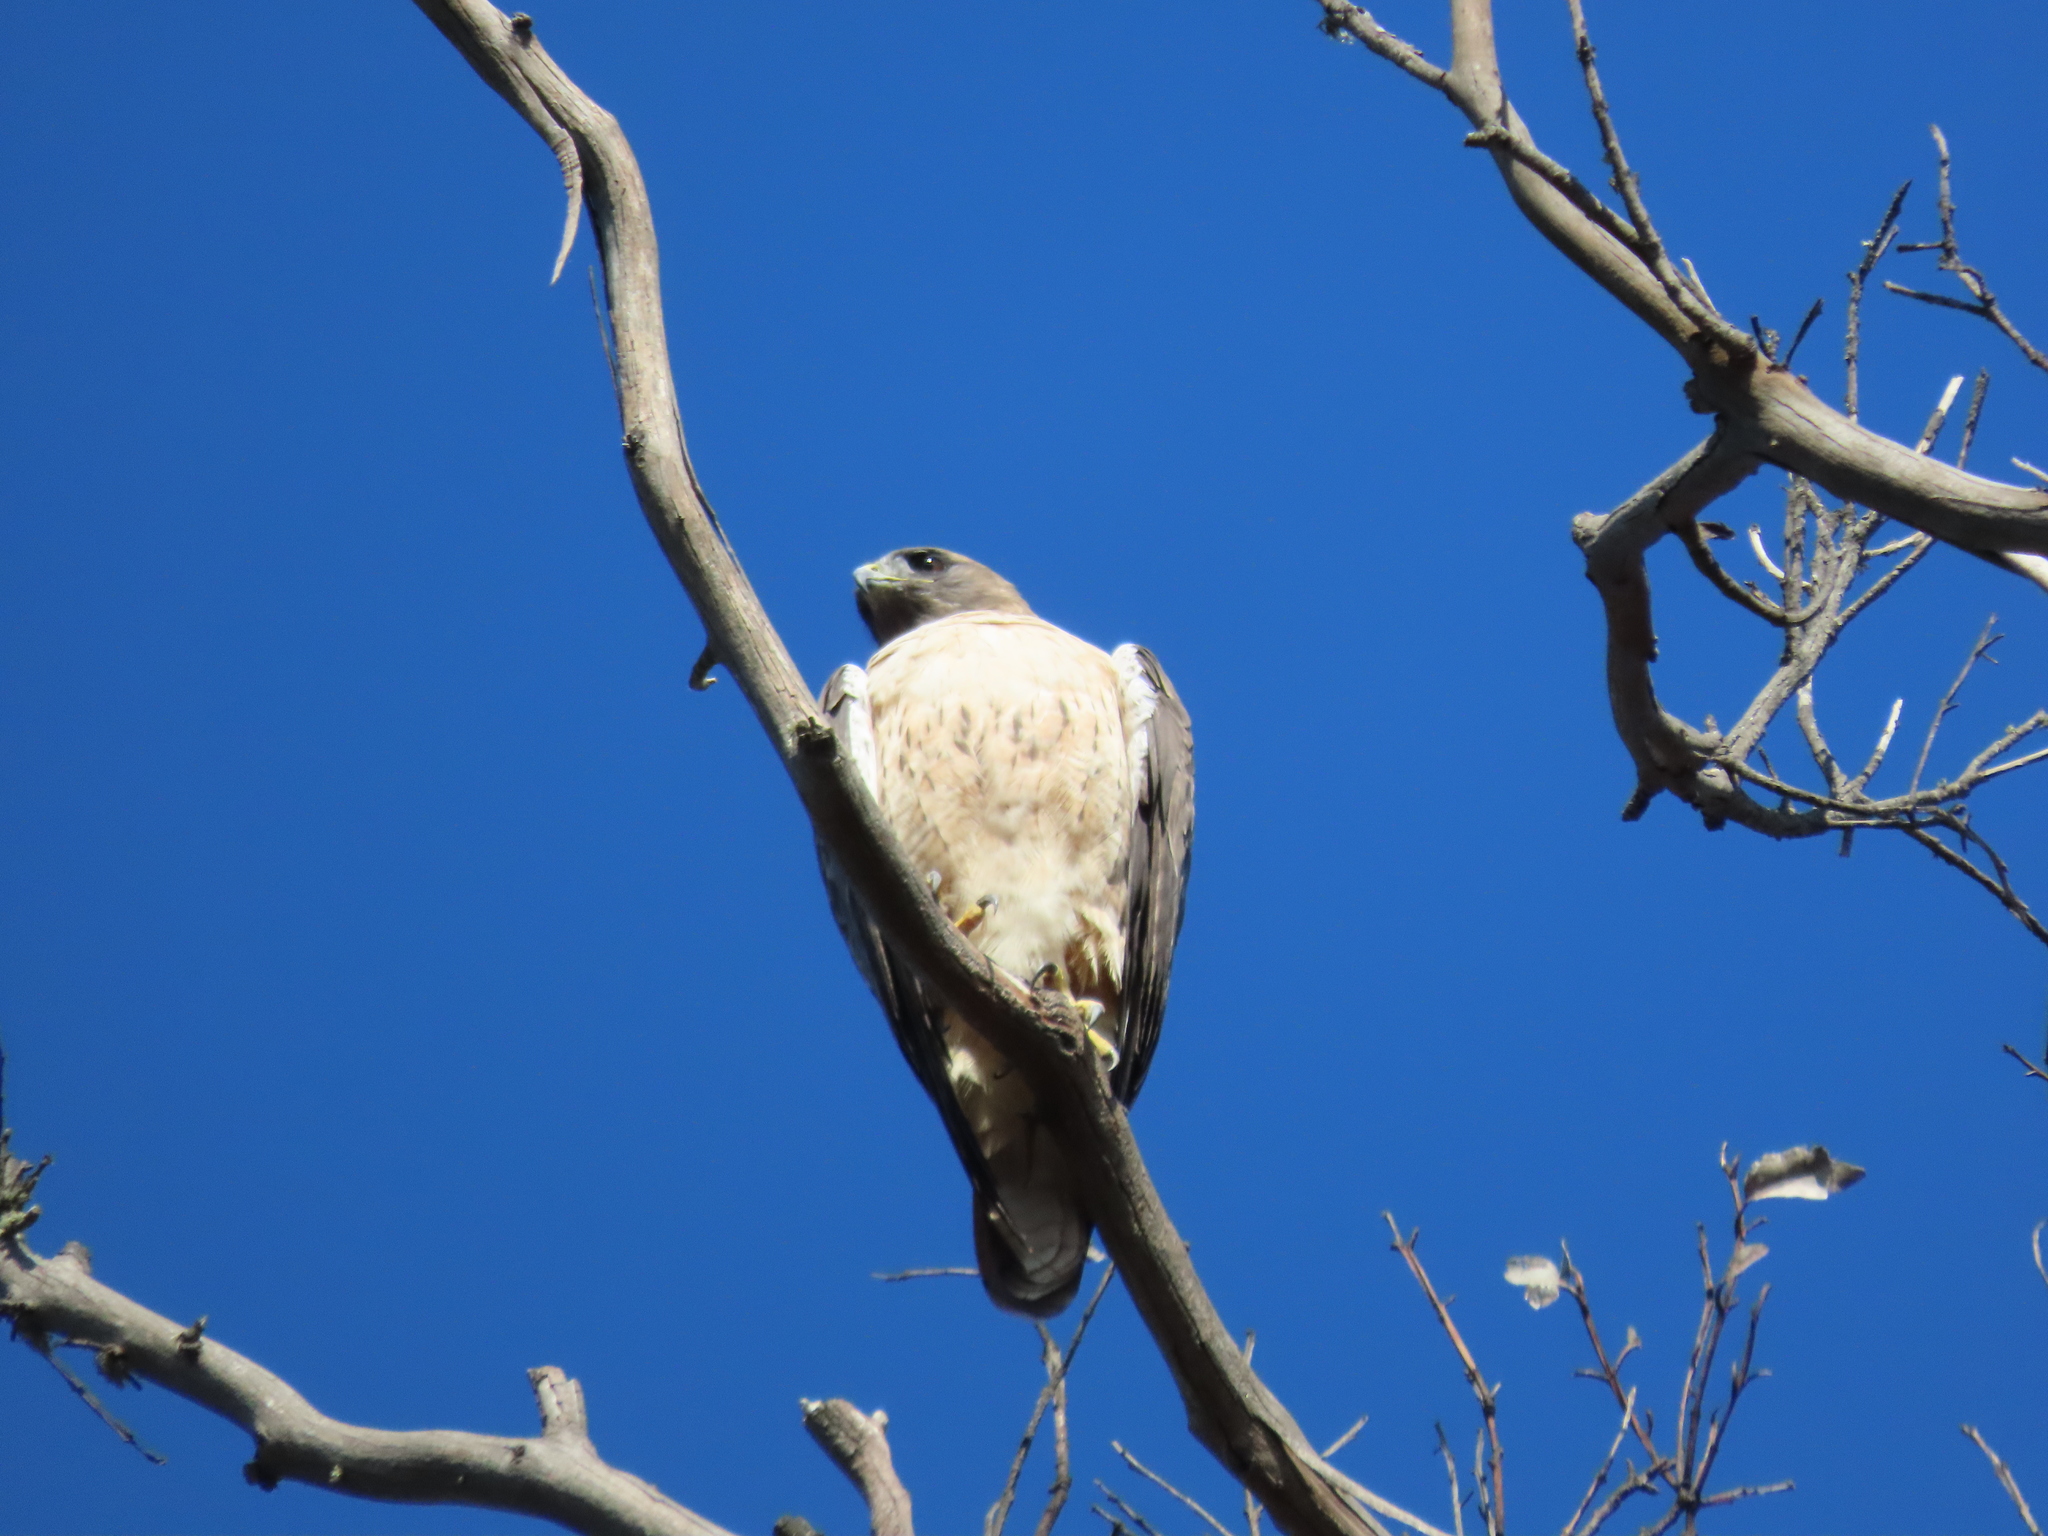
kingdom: Animalia
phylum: Chordata
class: Aves
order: Accipitriformes
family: Accipitridae
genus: Buteo
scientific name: Buteo jamaicensis
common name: Red-tailed hawk
